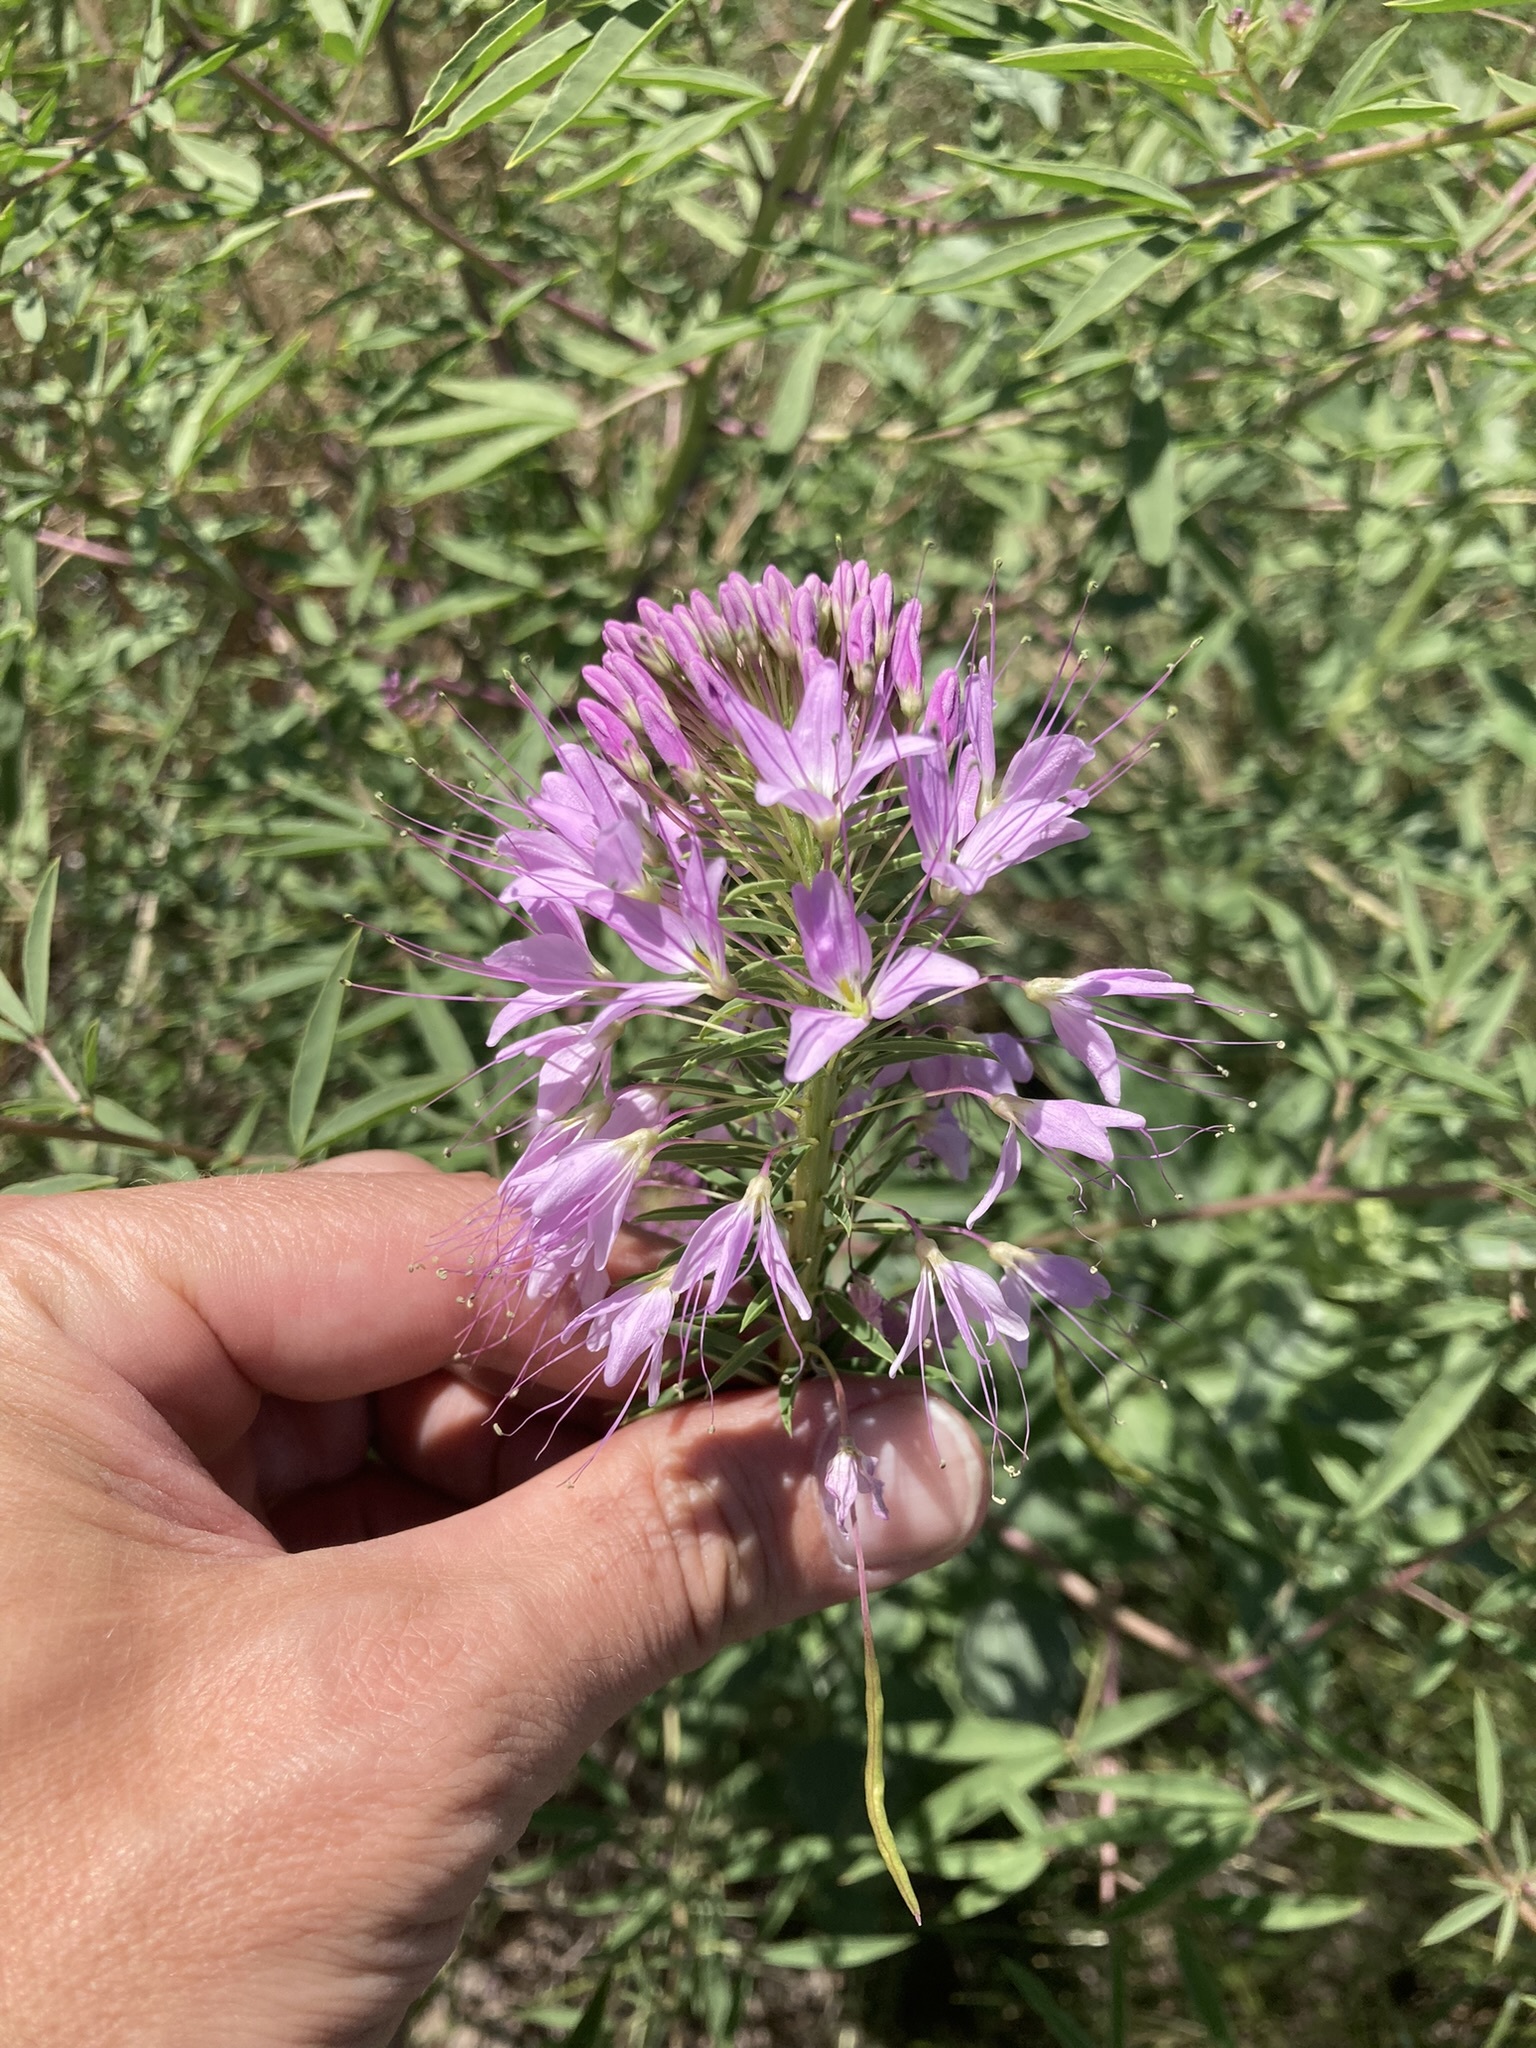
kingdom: Plantae
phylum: Tracheophyta
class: Magnoliopsida
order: Brassicales
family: Cleomaceae
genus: Cleomella
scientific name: Cleomella serrulata
